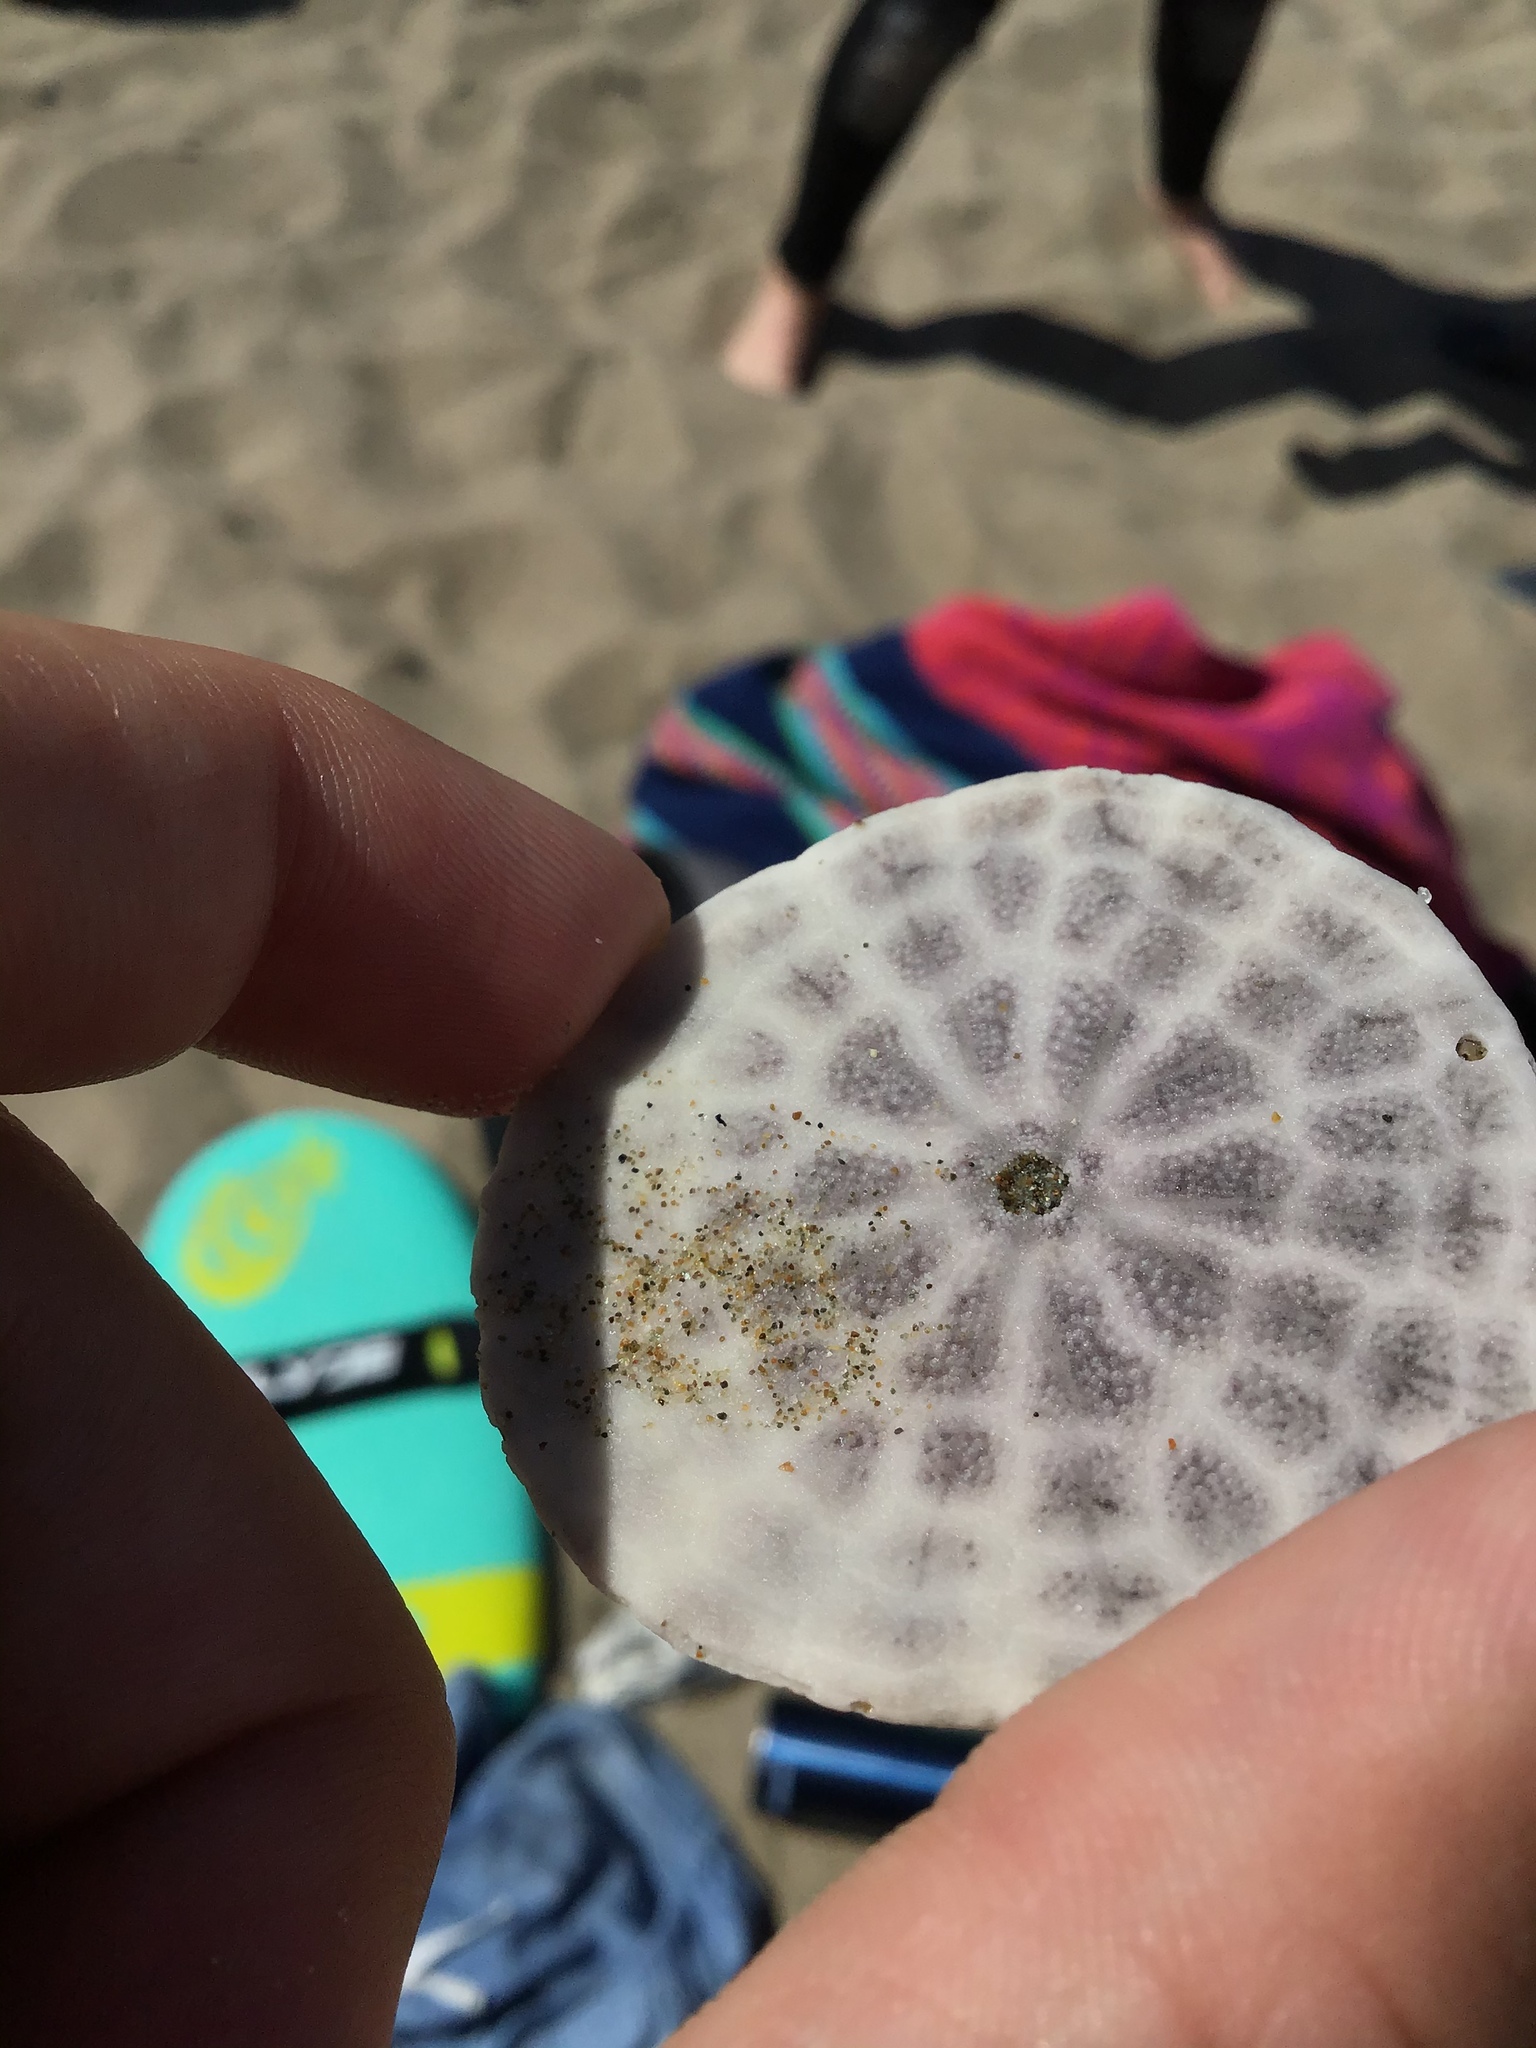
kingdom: Animalia
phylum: Echinodermata
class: Echinoidea
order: Echinolampadacea
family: Dendrasteridae
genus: Dendraster
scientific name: Dendraster excentricus
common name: Eccentric sand dollar sea urchin
